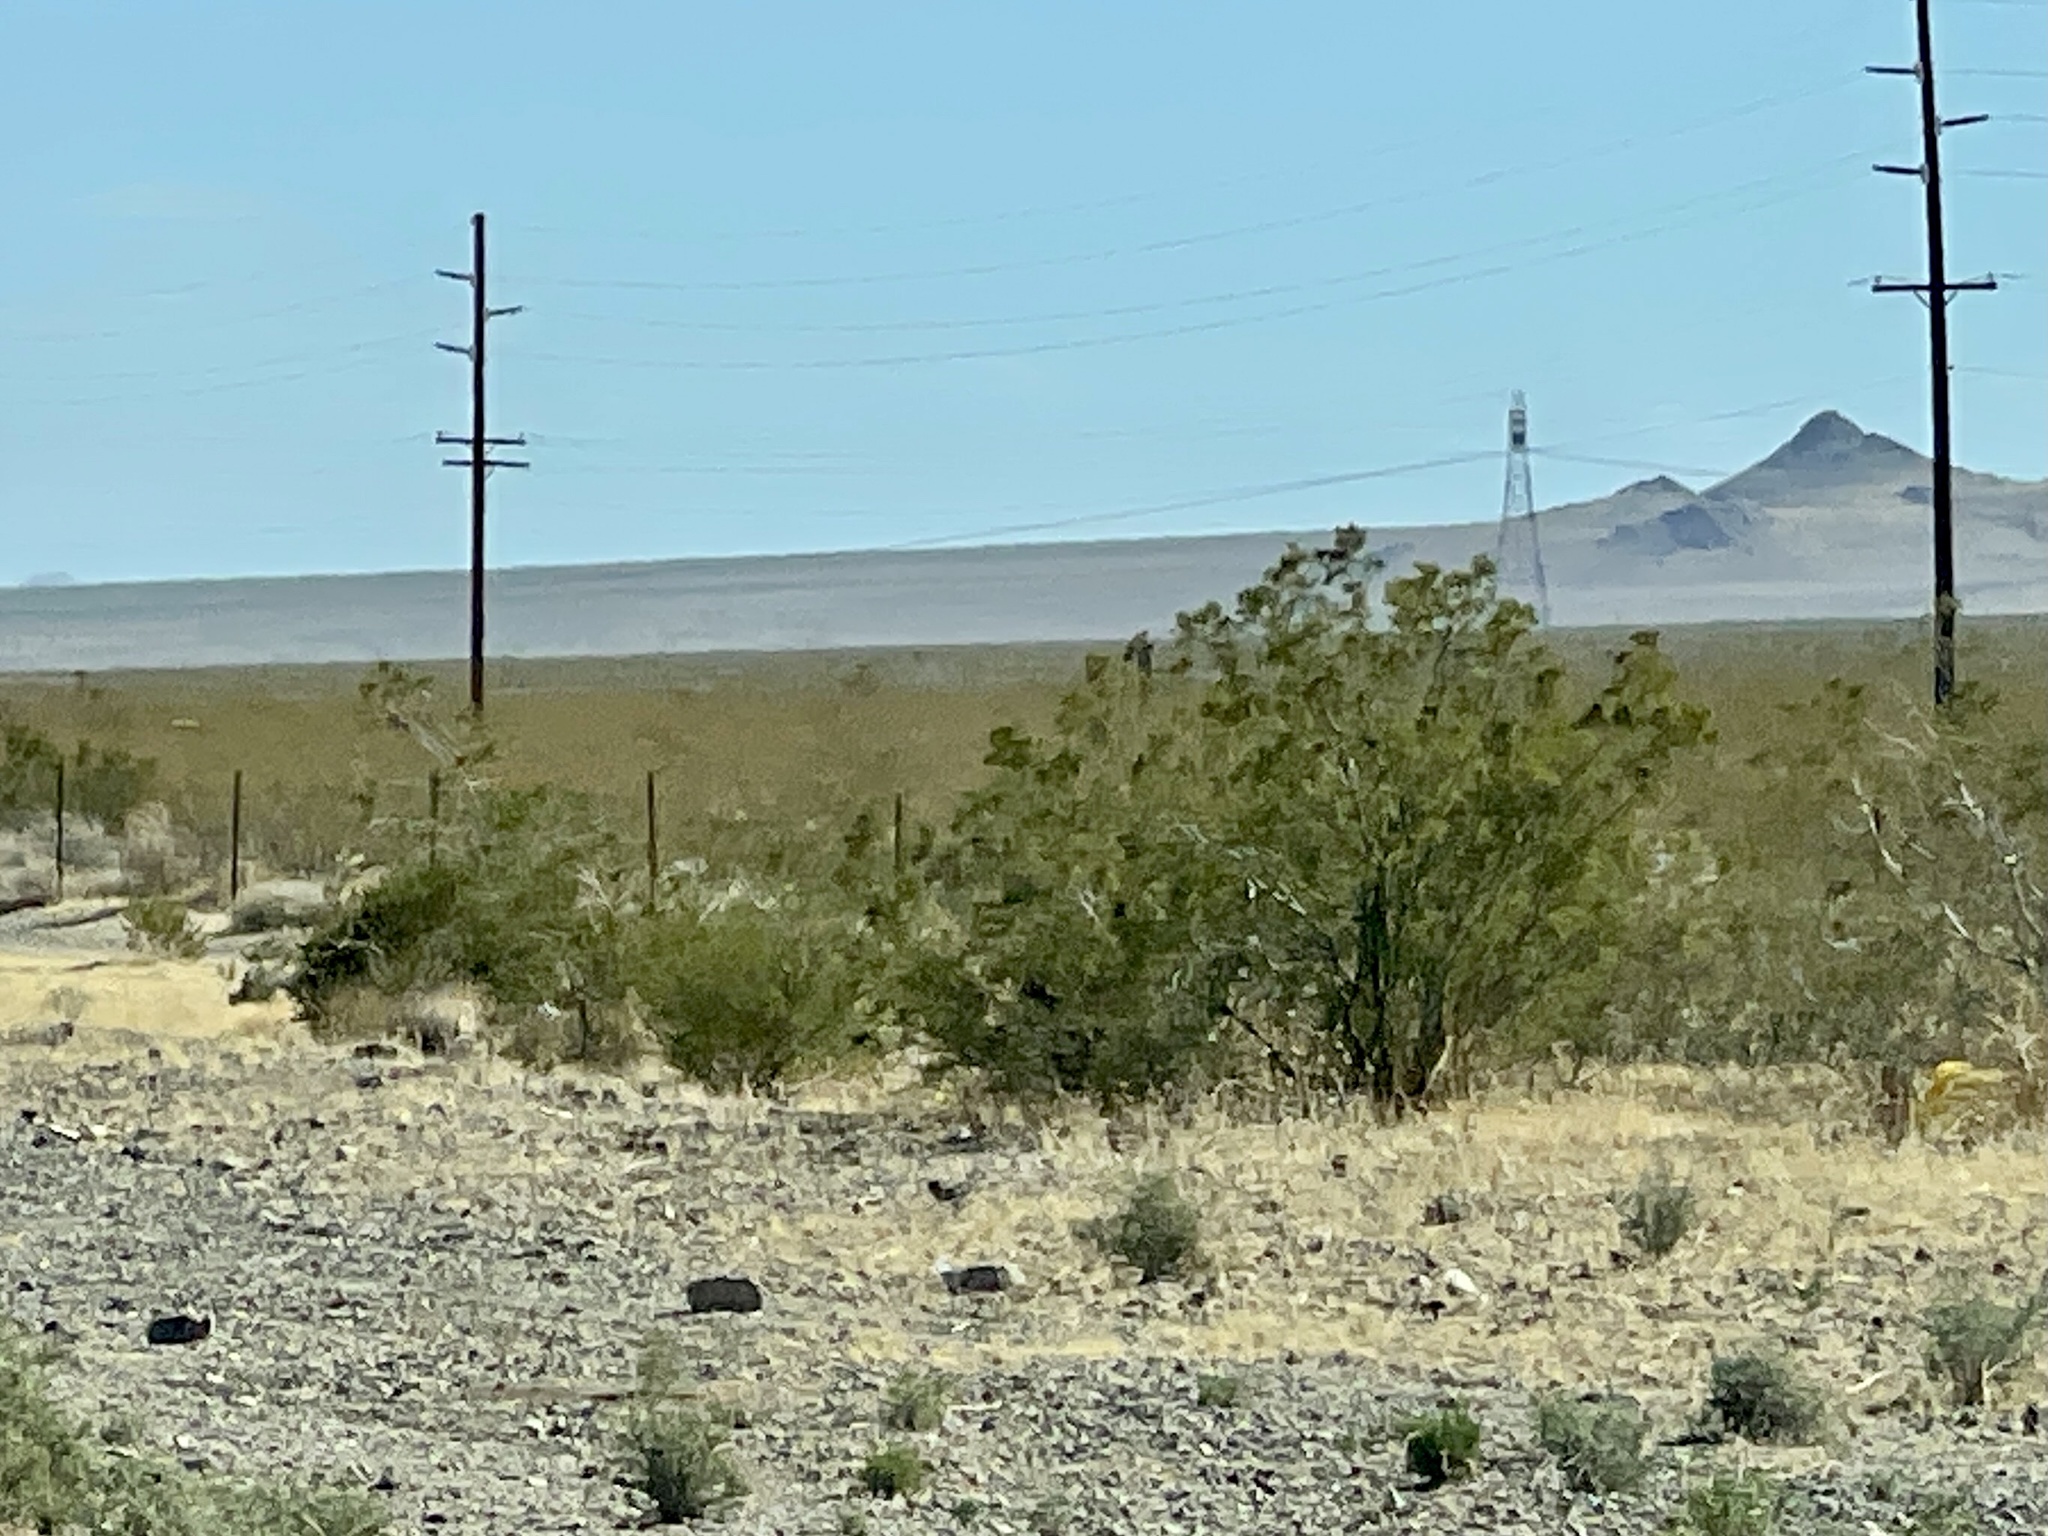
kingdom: Plantae
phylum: Tracheophyta
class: Magnoliopsida
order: Zygophyllales
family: Zygophyllaceae
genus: Larrea
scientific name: Larrea tridentata
